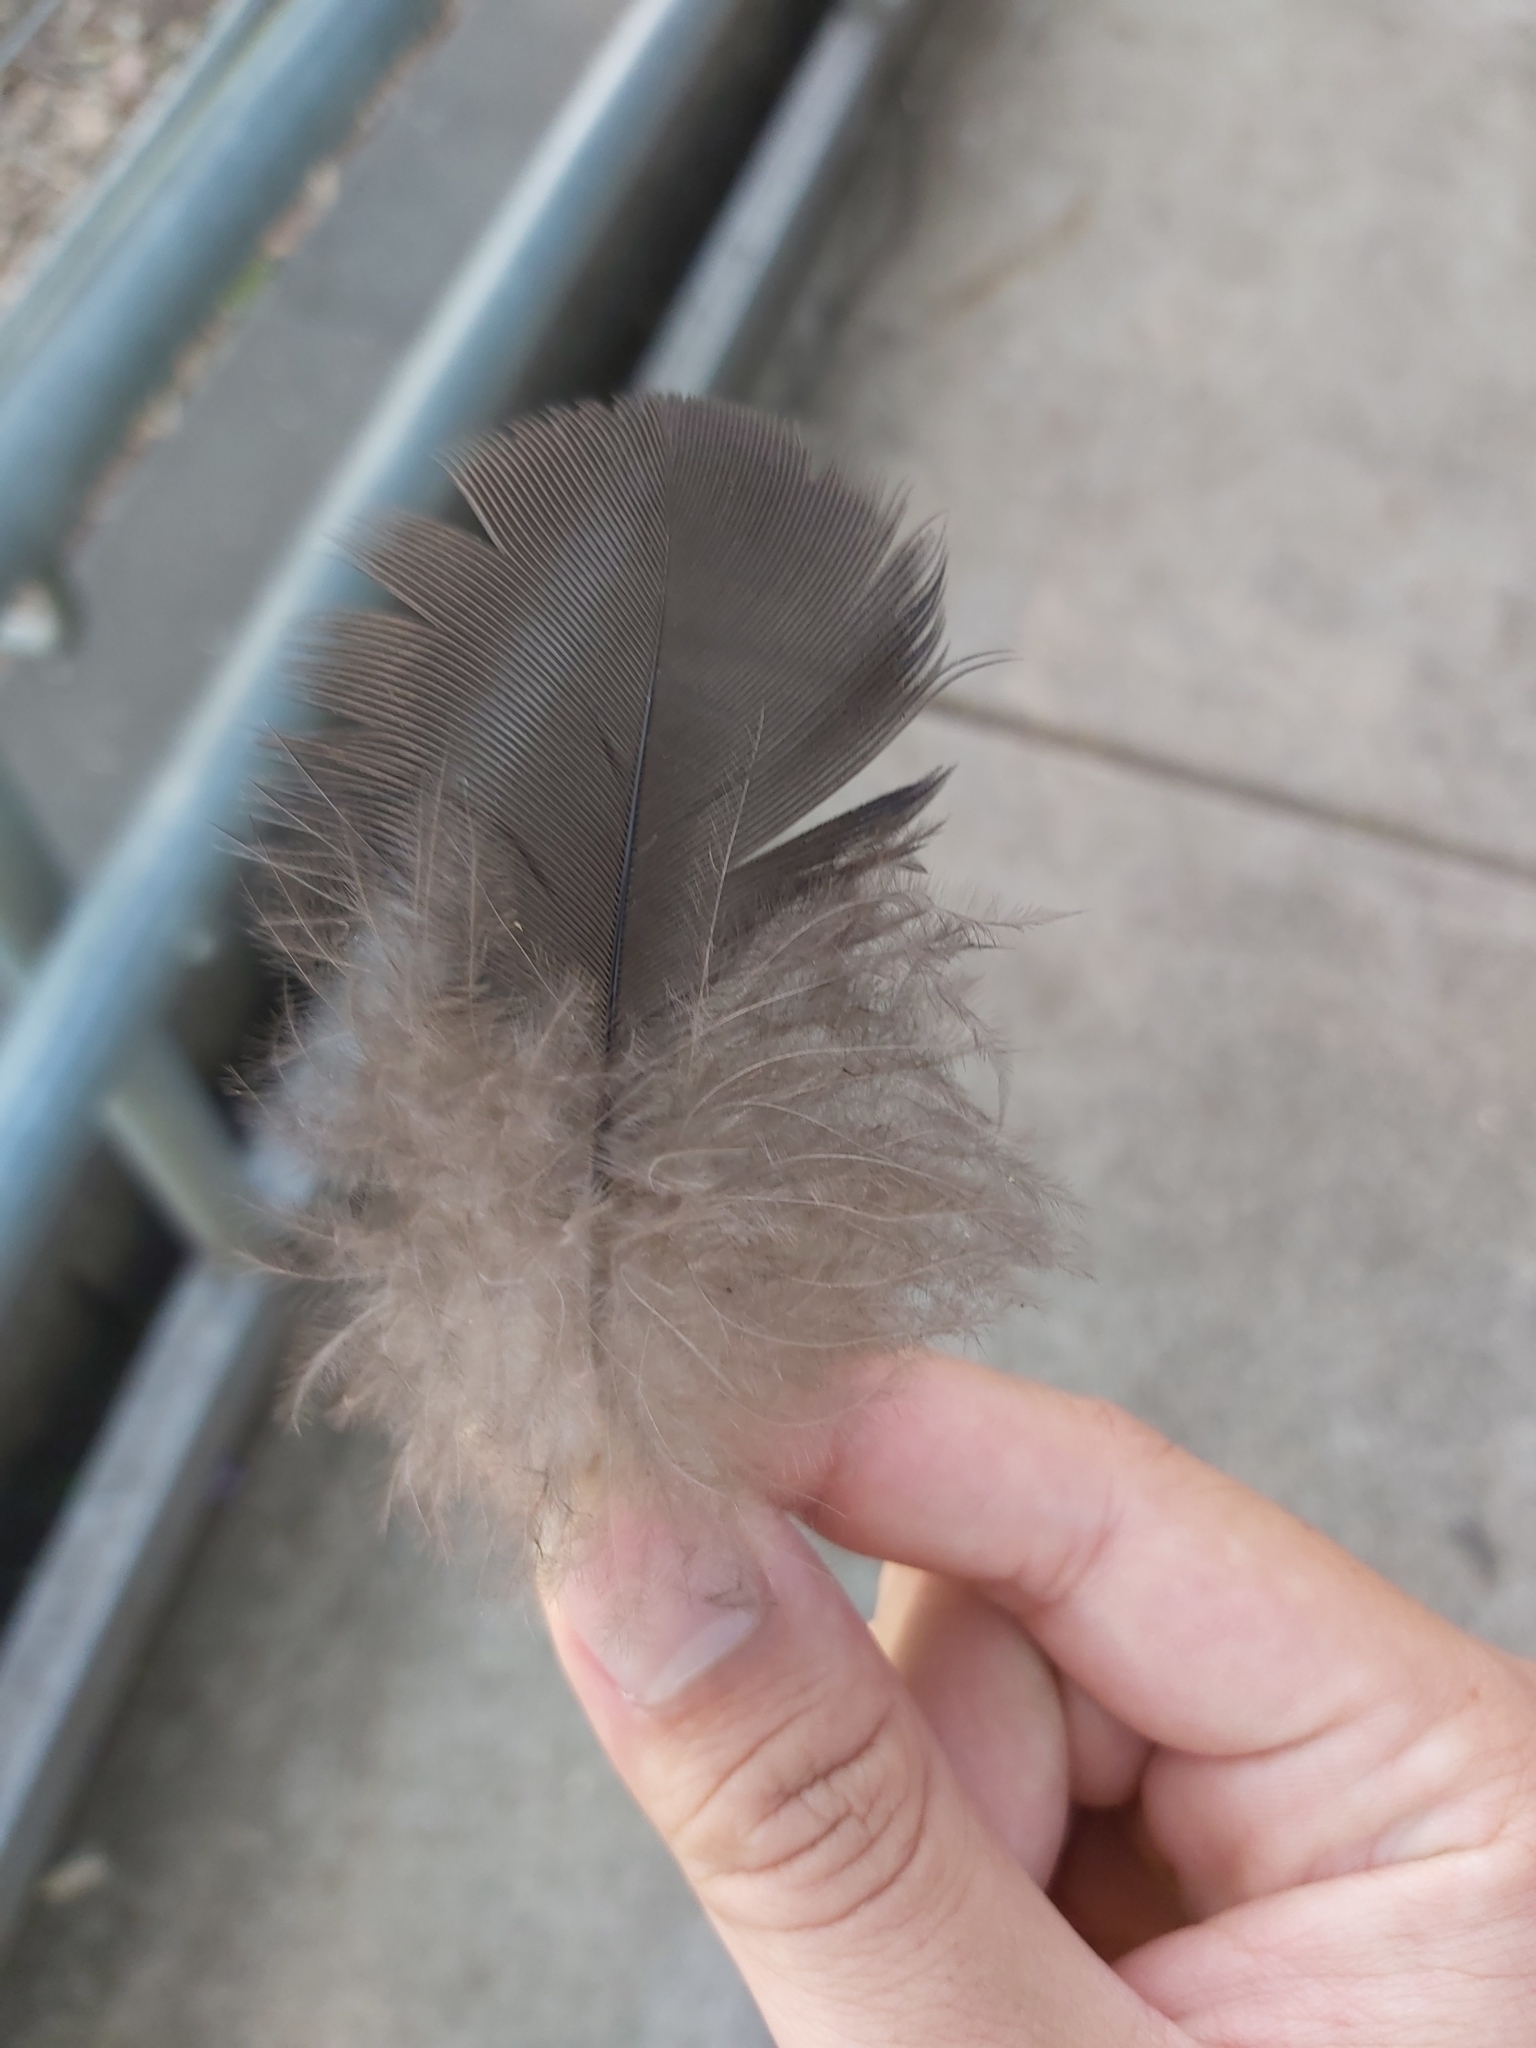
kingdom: Animalia
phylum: Chordata
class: Aves
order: Galliformes
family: Megapodiidae
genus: Alectura
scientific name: Alectura lathami
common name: Australian brushturkey
